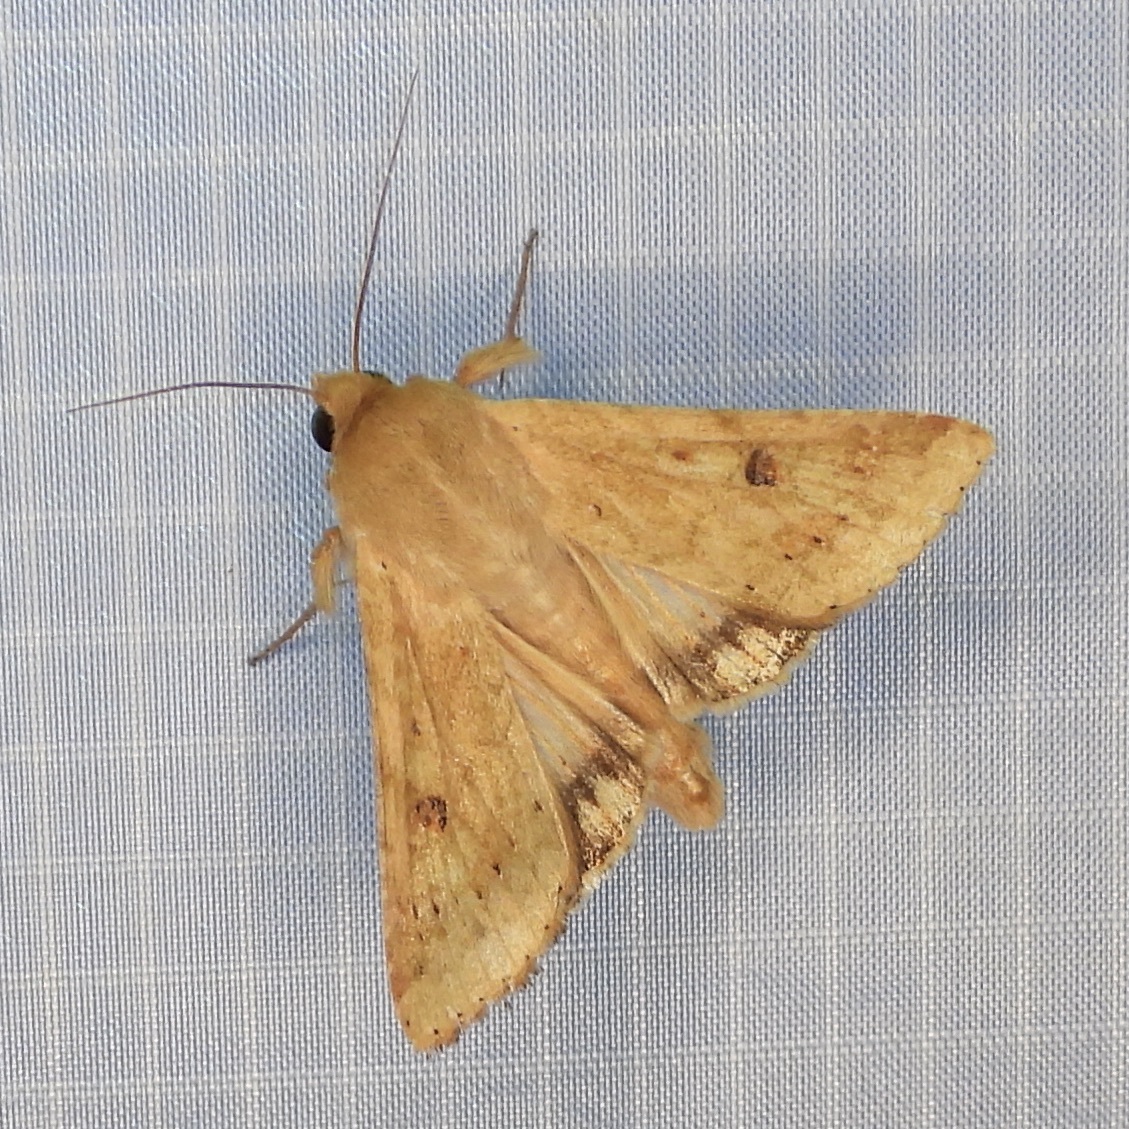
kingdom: Animalia
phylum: Arthropoda
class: Insecta
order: Lepidoptera
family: Noctuidae
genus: Helicoverpa
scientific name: Helicoverpa zea
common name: Bollworm
